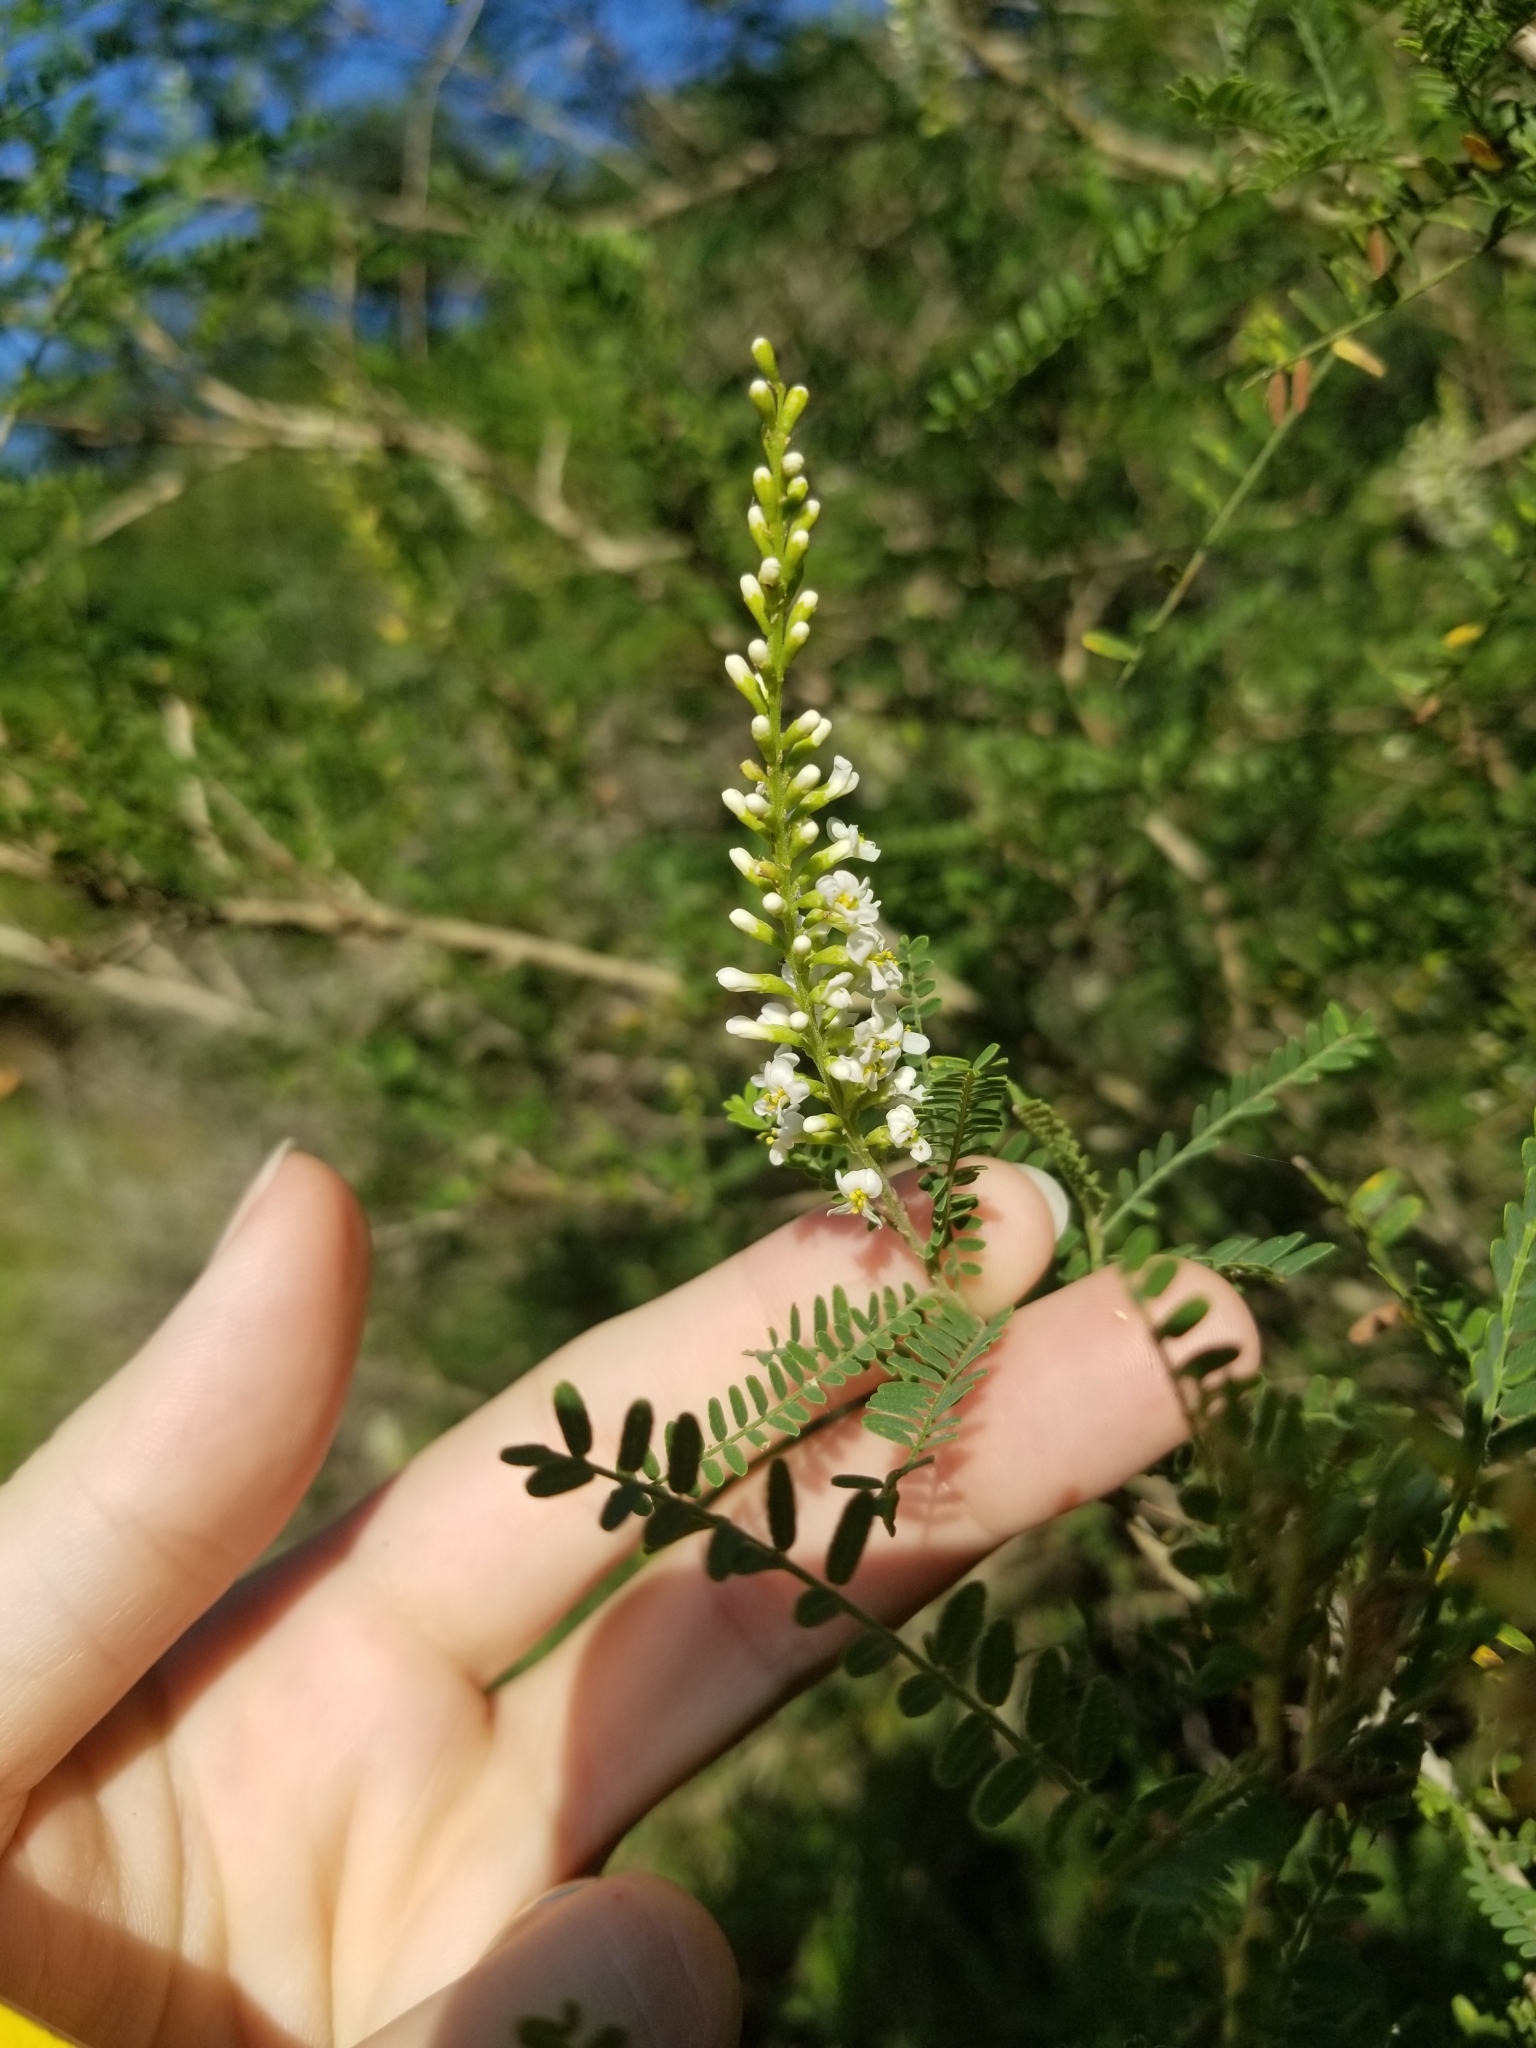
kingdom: Plantae
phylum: Tracheophyta
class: Magnoliopsida
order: Fabales
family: Fabaceae
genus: Eysenhardtia
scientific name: Eysenhardtia texana
